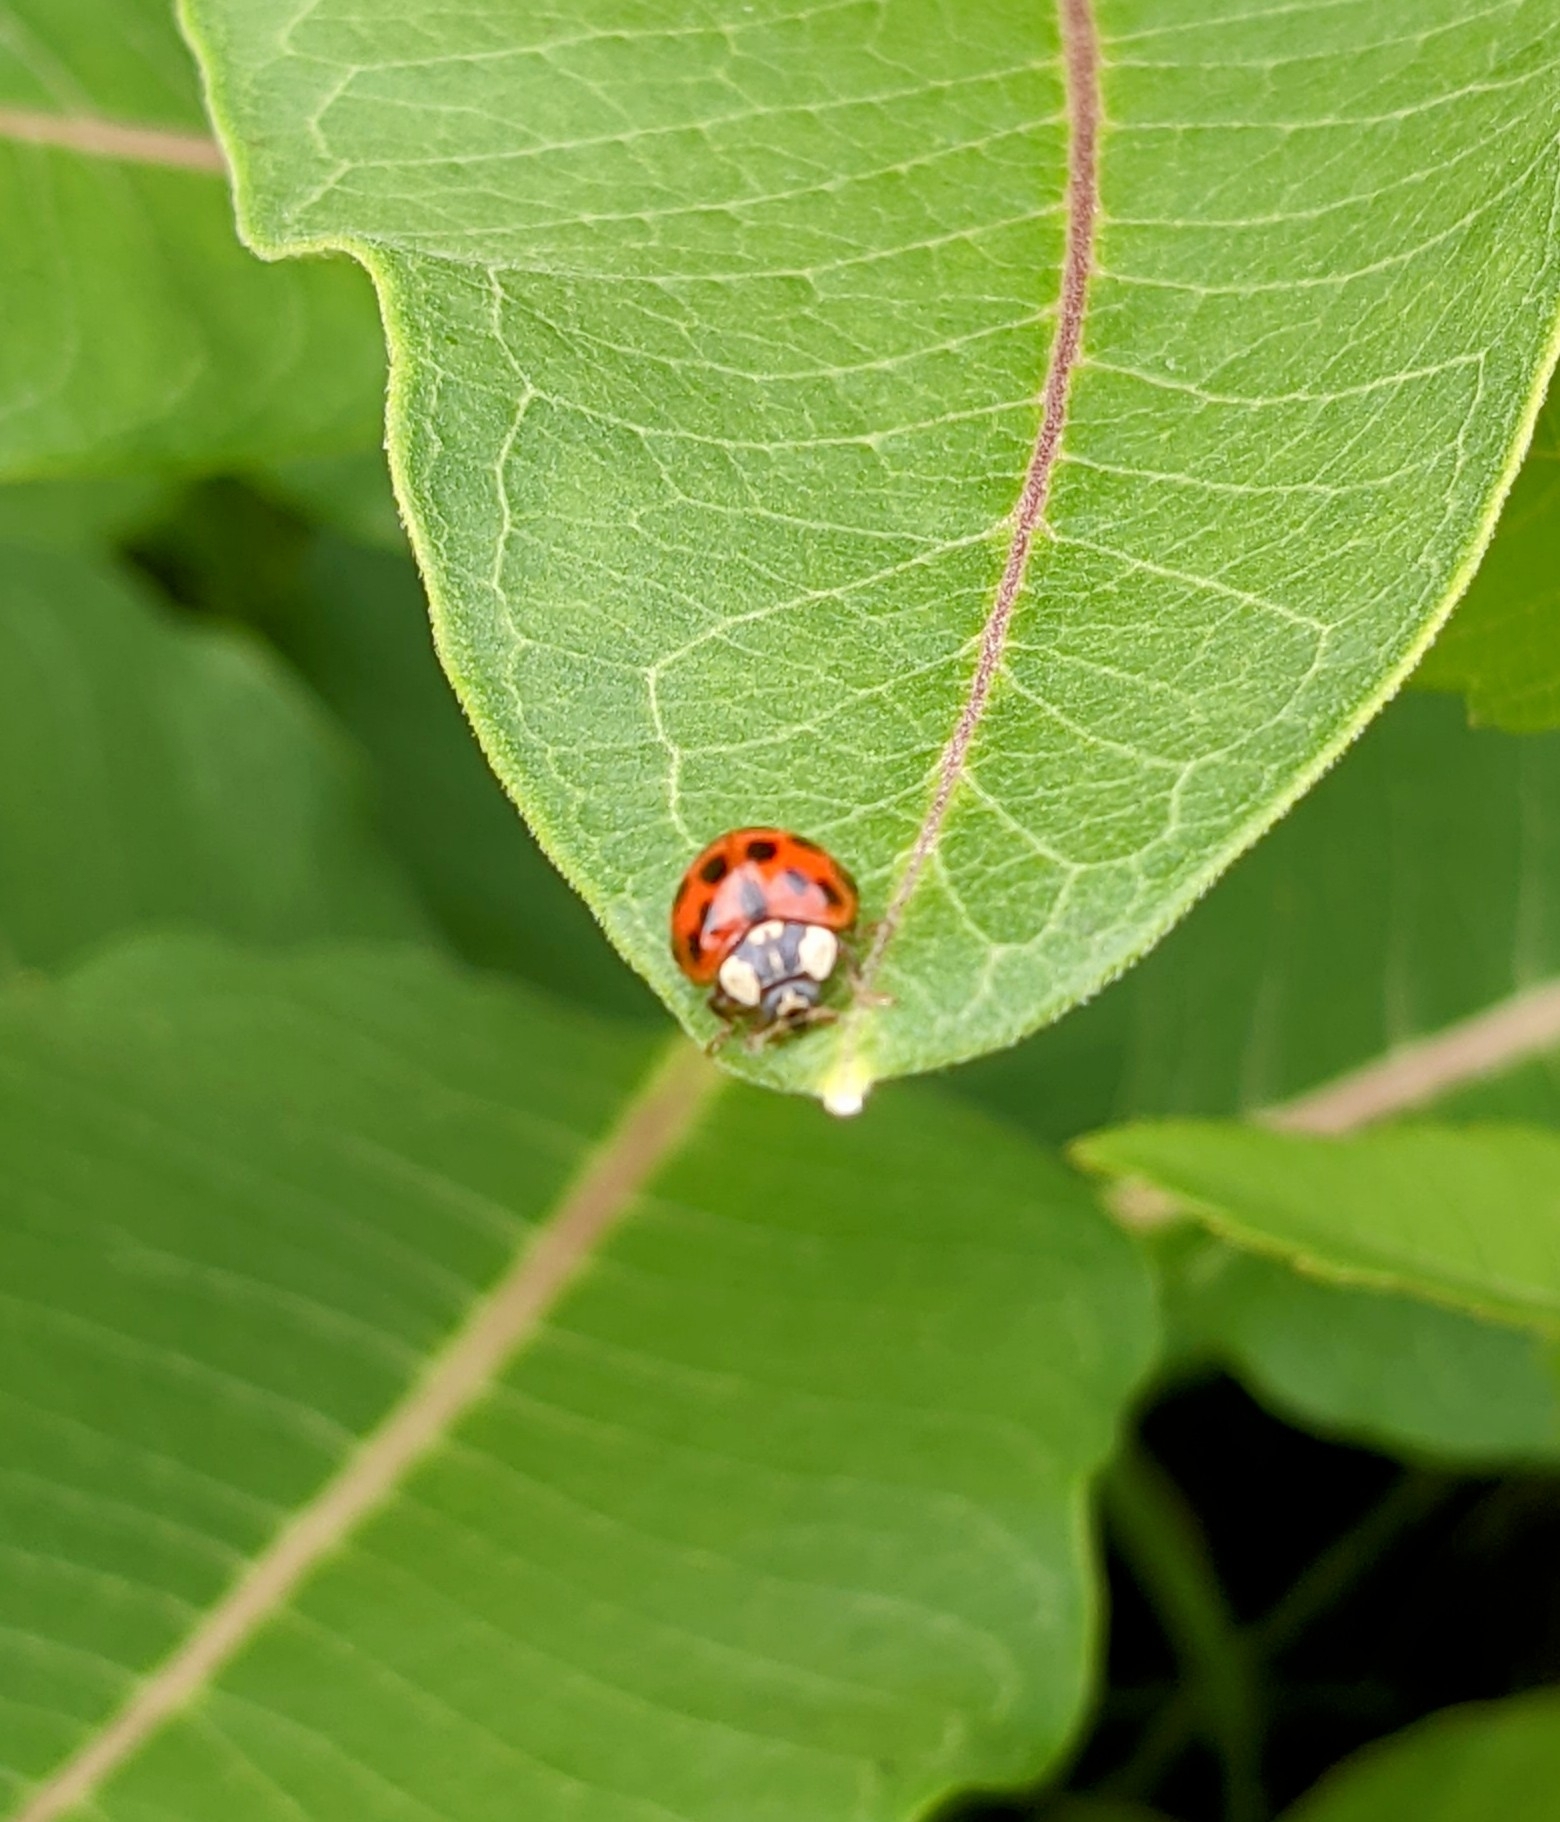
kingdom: Animalia
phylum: Arthropoda
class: Insecta
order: Coleoptera
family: Coccinellidae
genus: Harmonia
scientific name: Harmonia axyridis
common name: Harlequin ladybird
